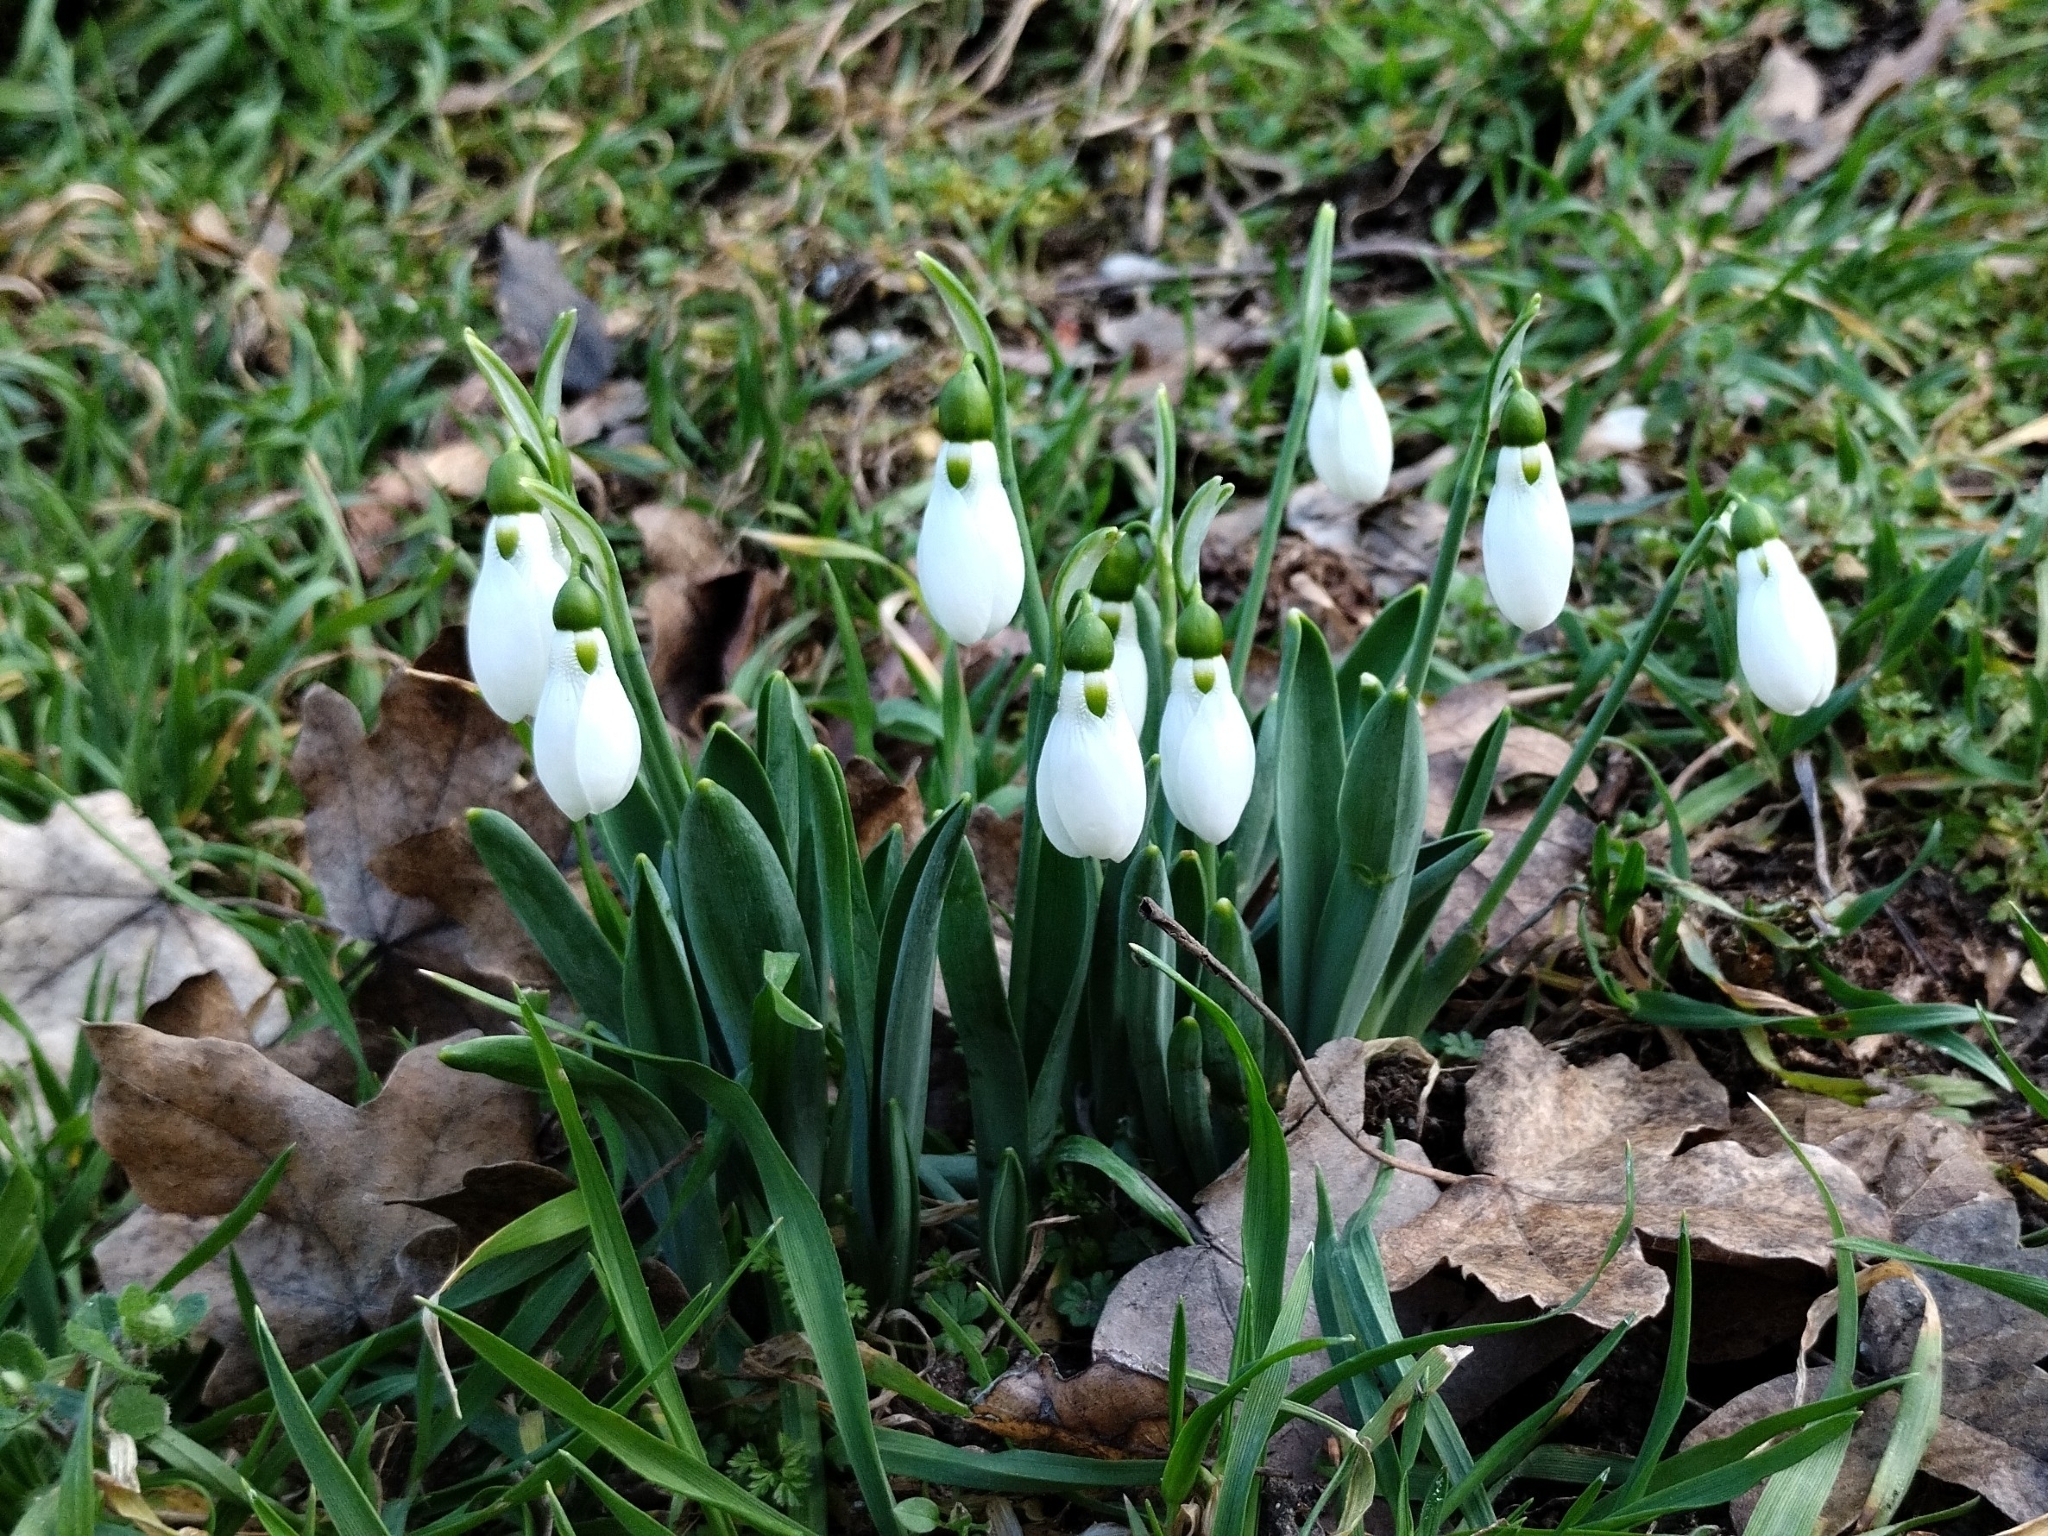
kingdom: Plantae
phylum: Tracheophyta
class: Liliopsida
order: Asparagales
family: Amaryllidaceae
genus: Galanthus
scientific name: Galanthus elwesii
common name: Greater snowdrop
